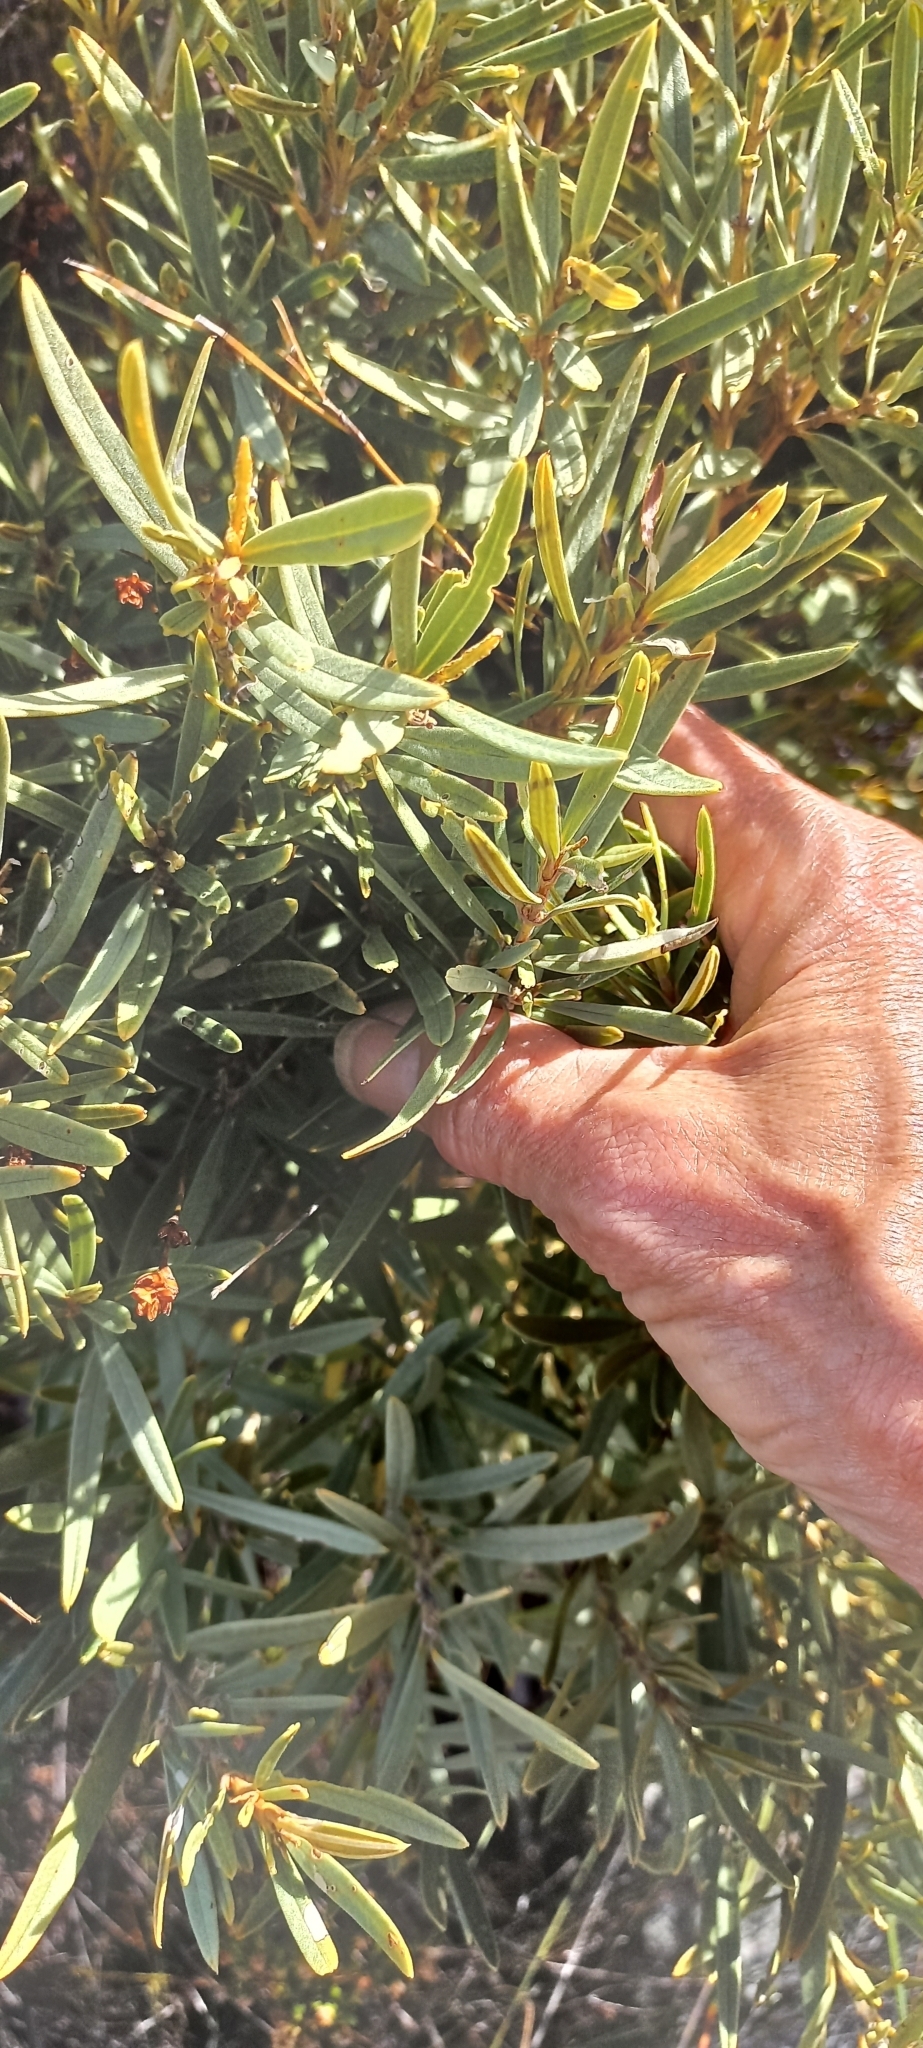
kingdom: Plantae
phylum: Tracheophyta
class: Magnoliopsida
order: Cornales
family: Grubbiaceae
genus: Grubbia
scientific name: Grubbia tomentosa
